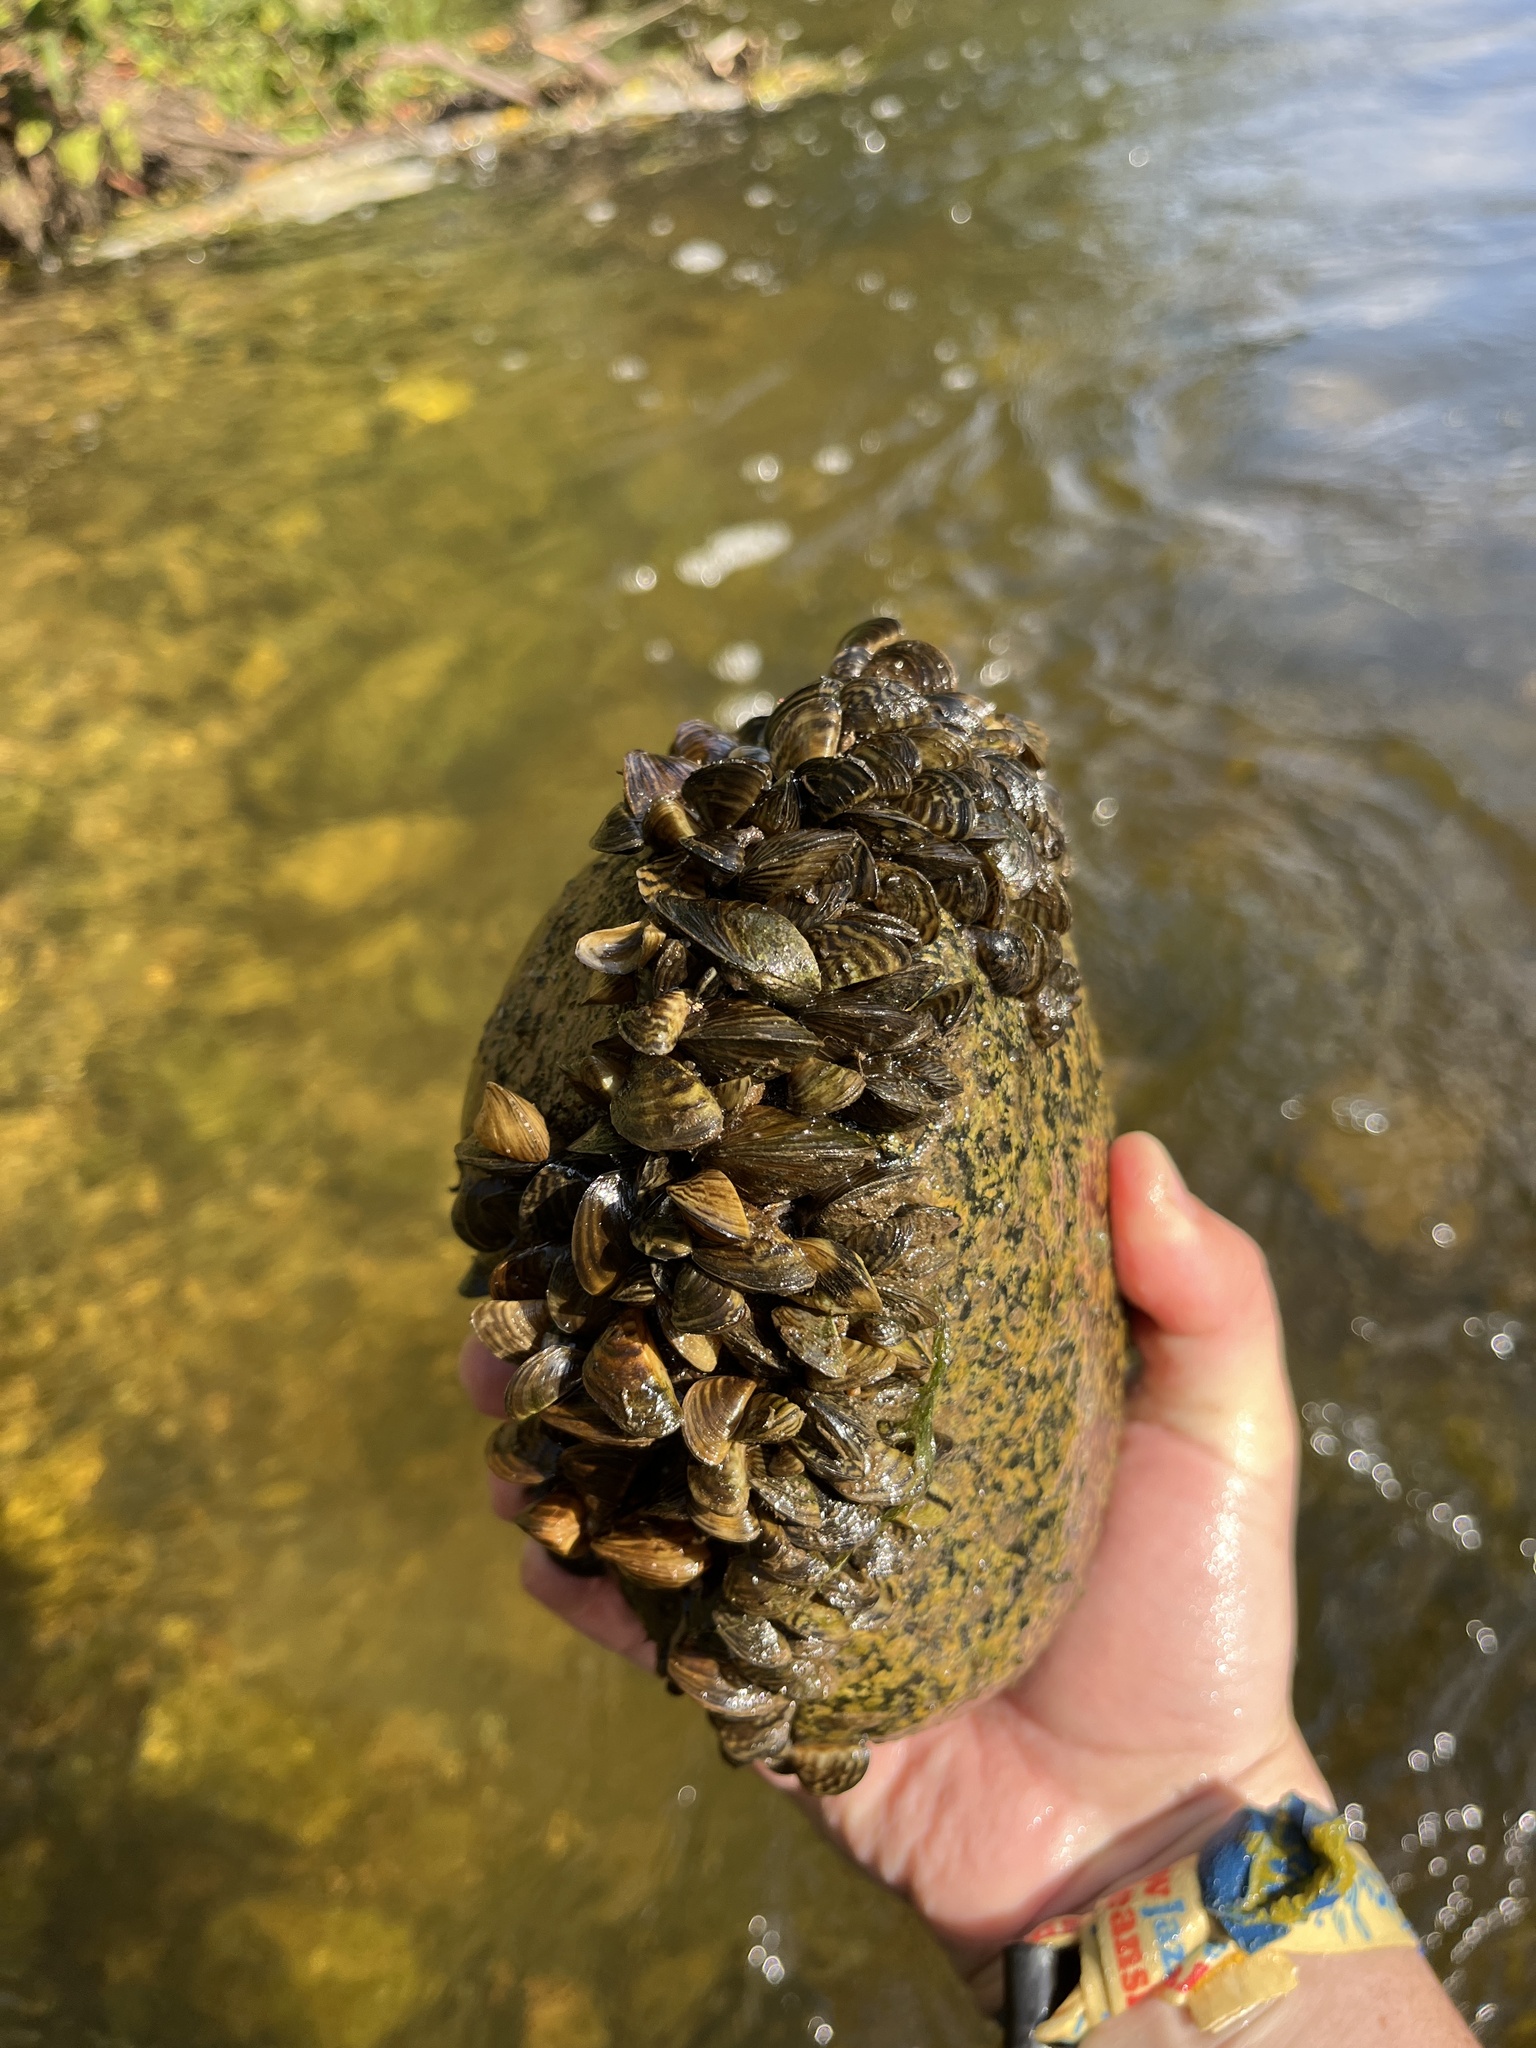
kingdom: Animalia
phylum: Mollusca
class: Bivalvia
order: Myida
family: Dreissenidae
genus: Dreissena
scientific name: Dreissena polymorpha
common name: Zebra mussel
